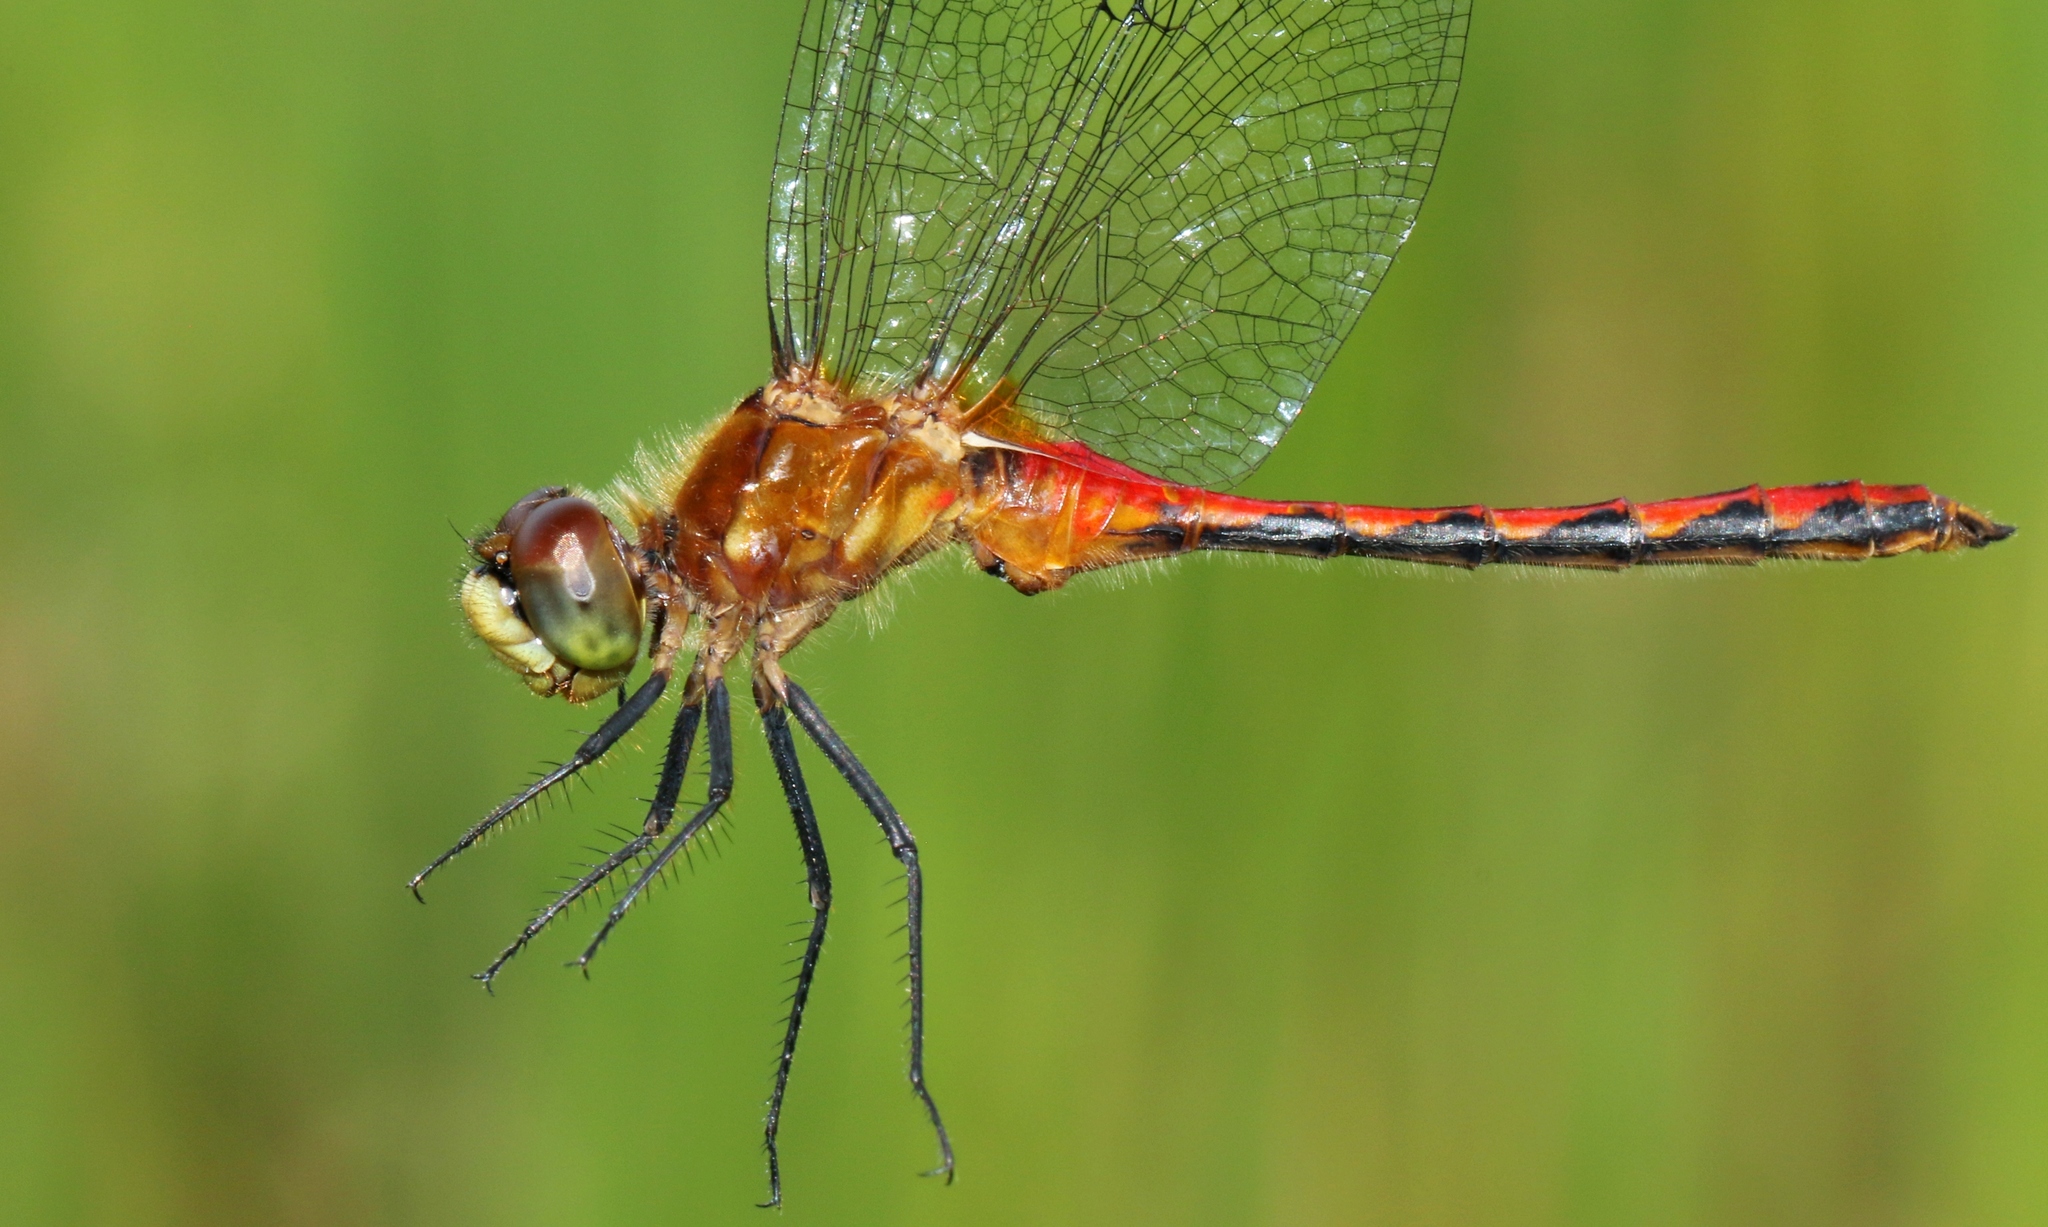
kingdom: Animalia
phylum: Arthropoda
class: Insecta
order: Odonata
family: Libellulidae
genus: Sympetrum
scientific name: Sympetrum obtrusum
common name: White-faced meadowhawk
